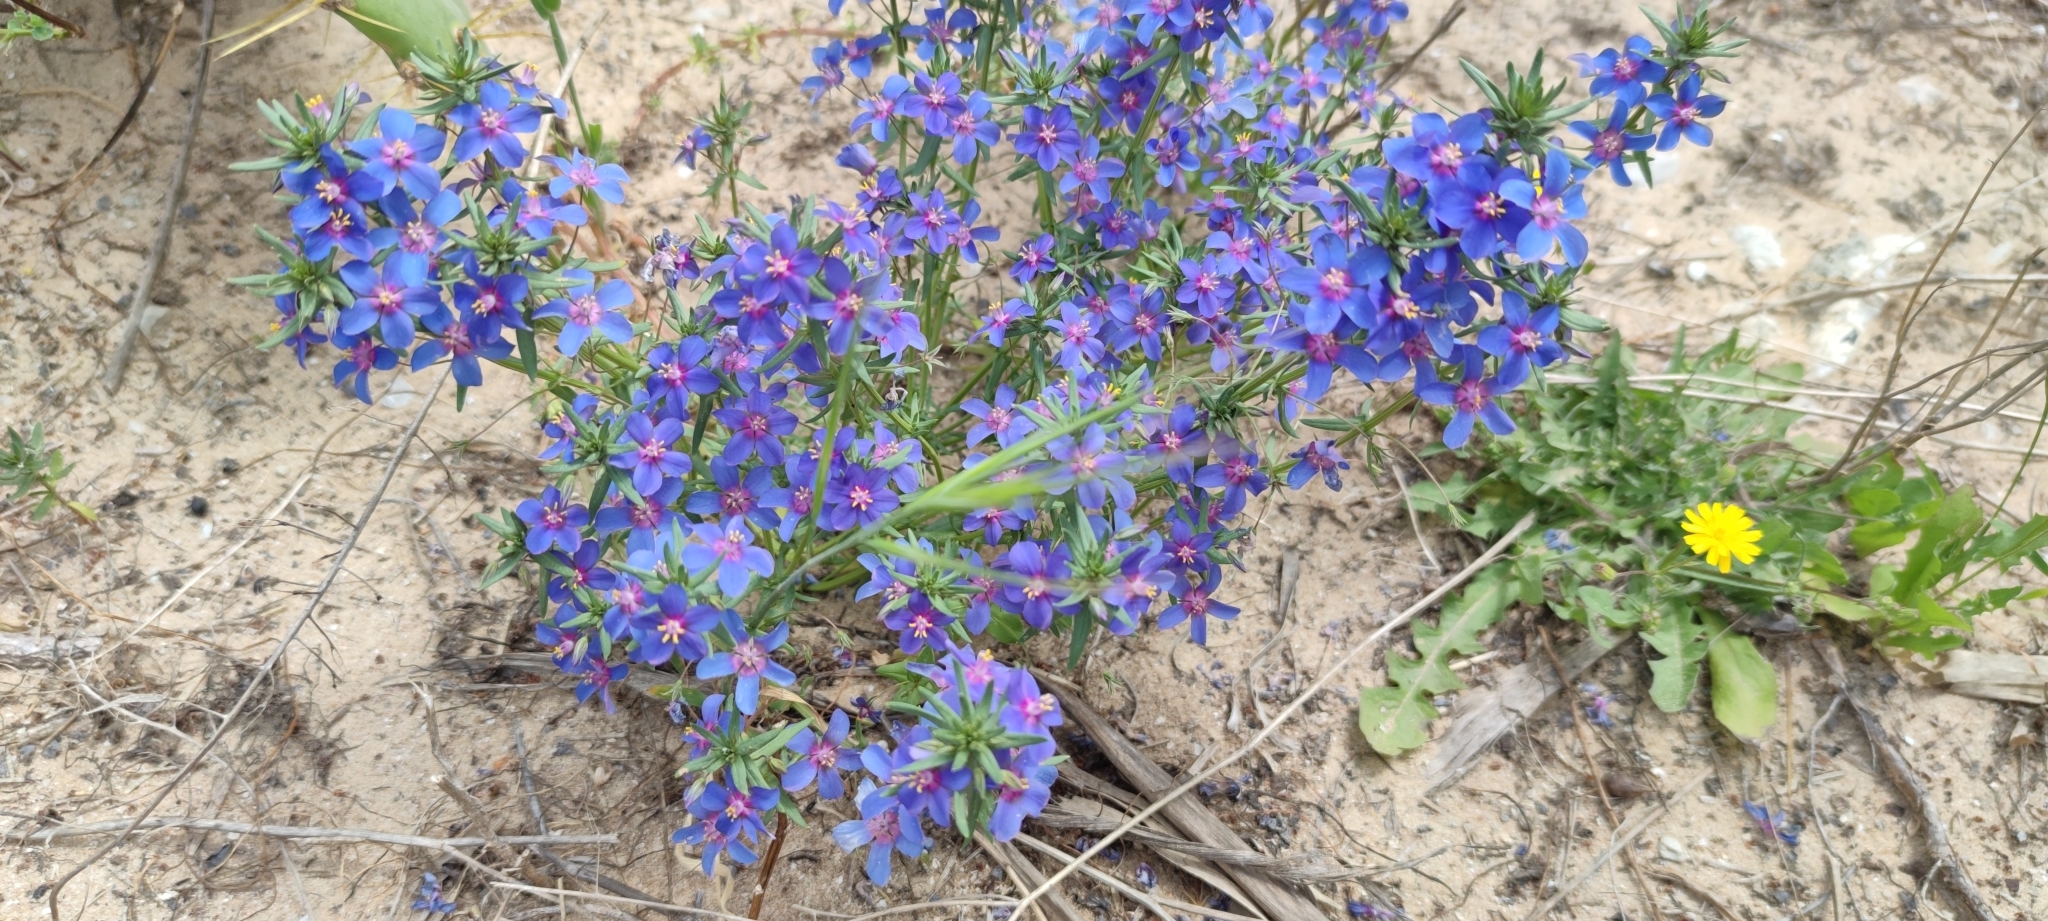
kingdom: Plantae
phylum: Tracheophyta
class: Magnoliopsida
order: Ericales
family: Primulaceae
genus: Lysimachia
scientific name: Lysimachia monelli
